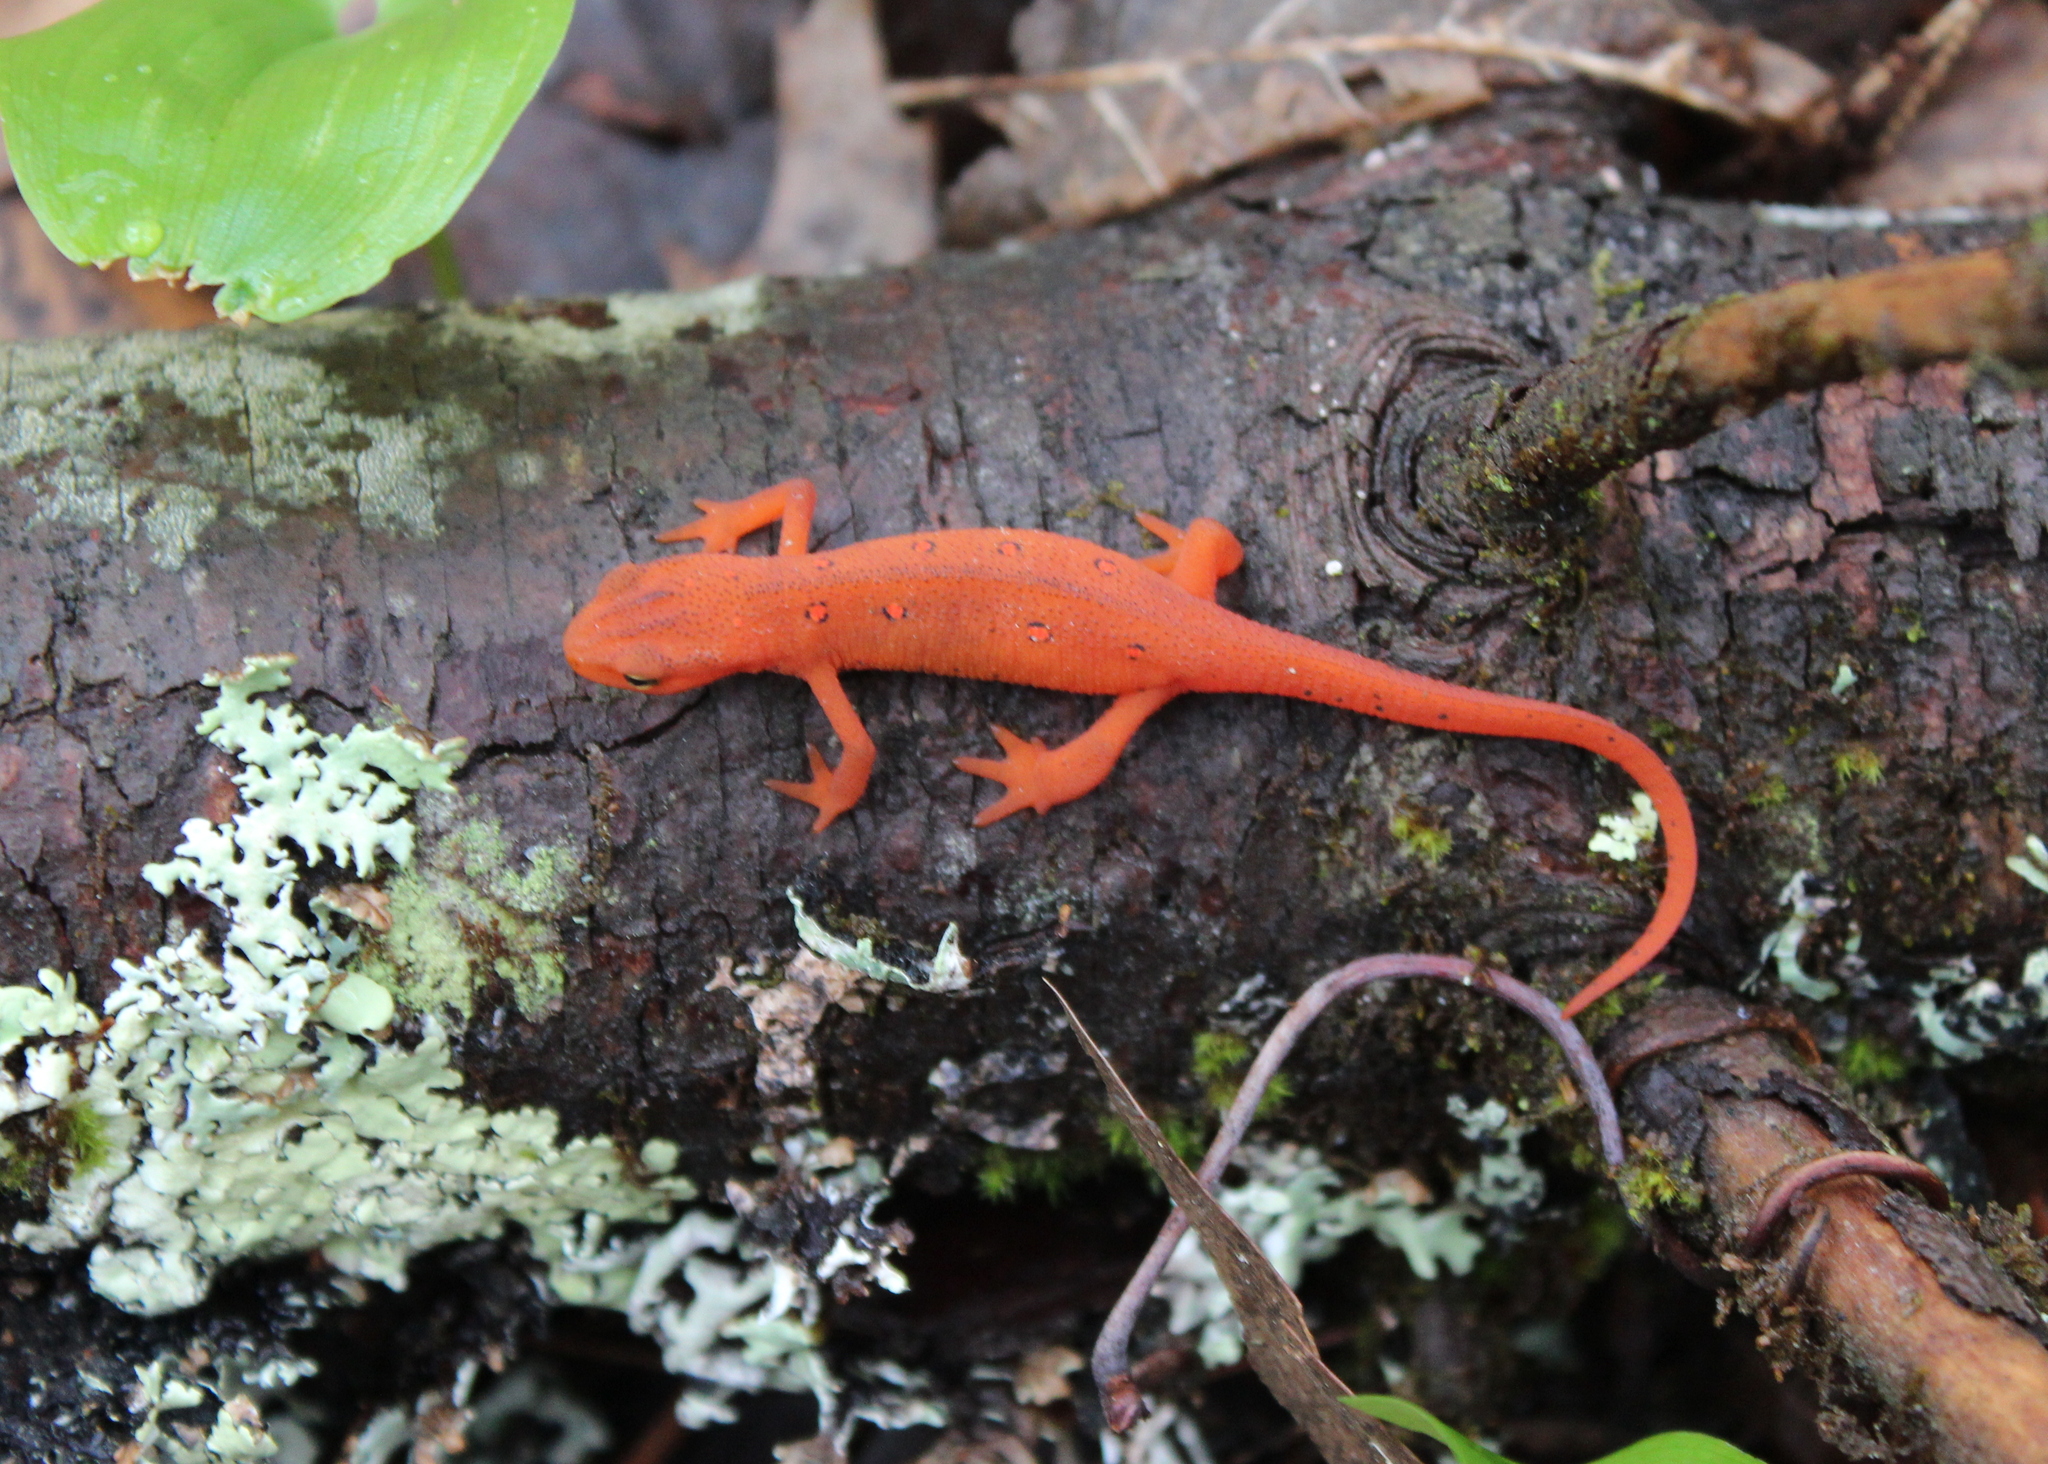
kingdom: Animalia
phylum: Chordata
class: Amphibia
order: Caudata
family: Salamandridae
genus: Notophthalmus
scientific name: Notophthalmus viridescens
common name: Eastern newt
